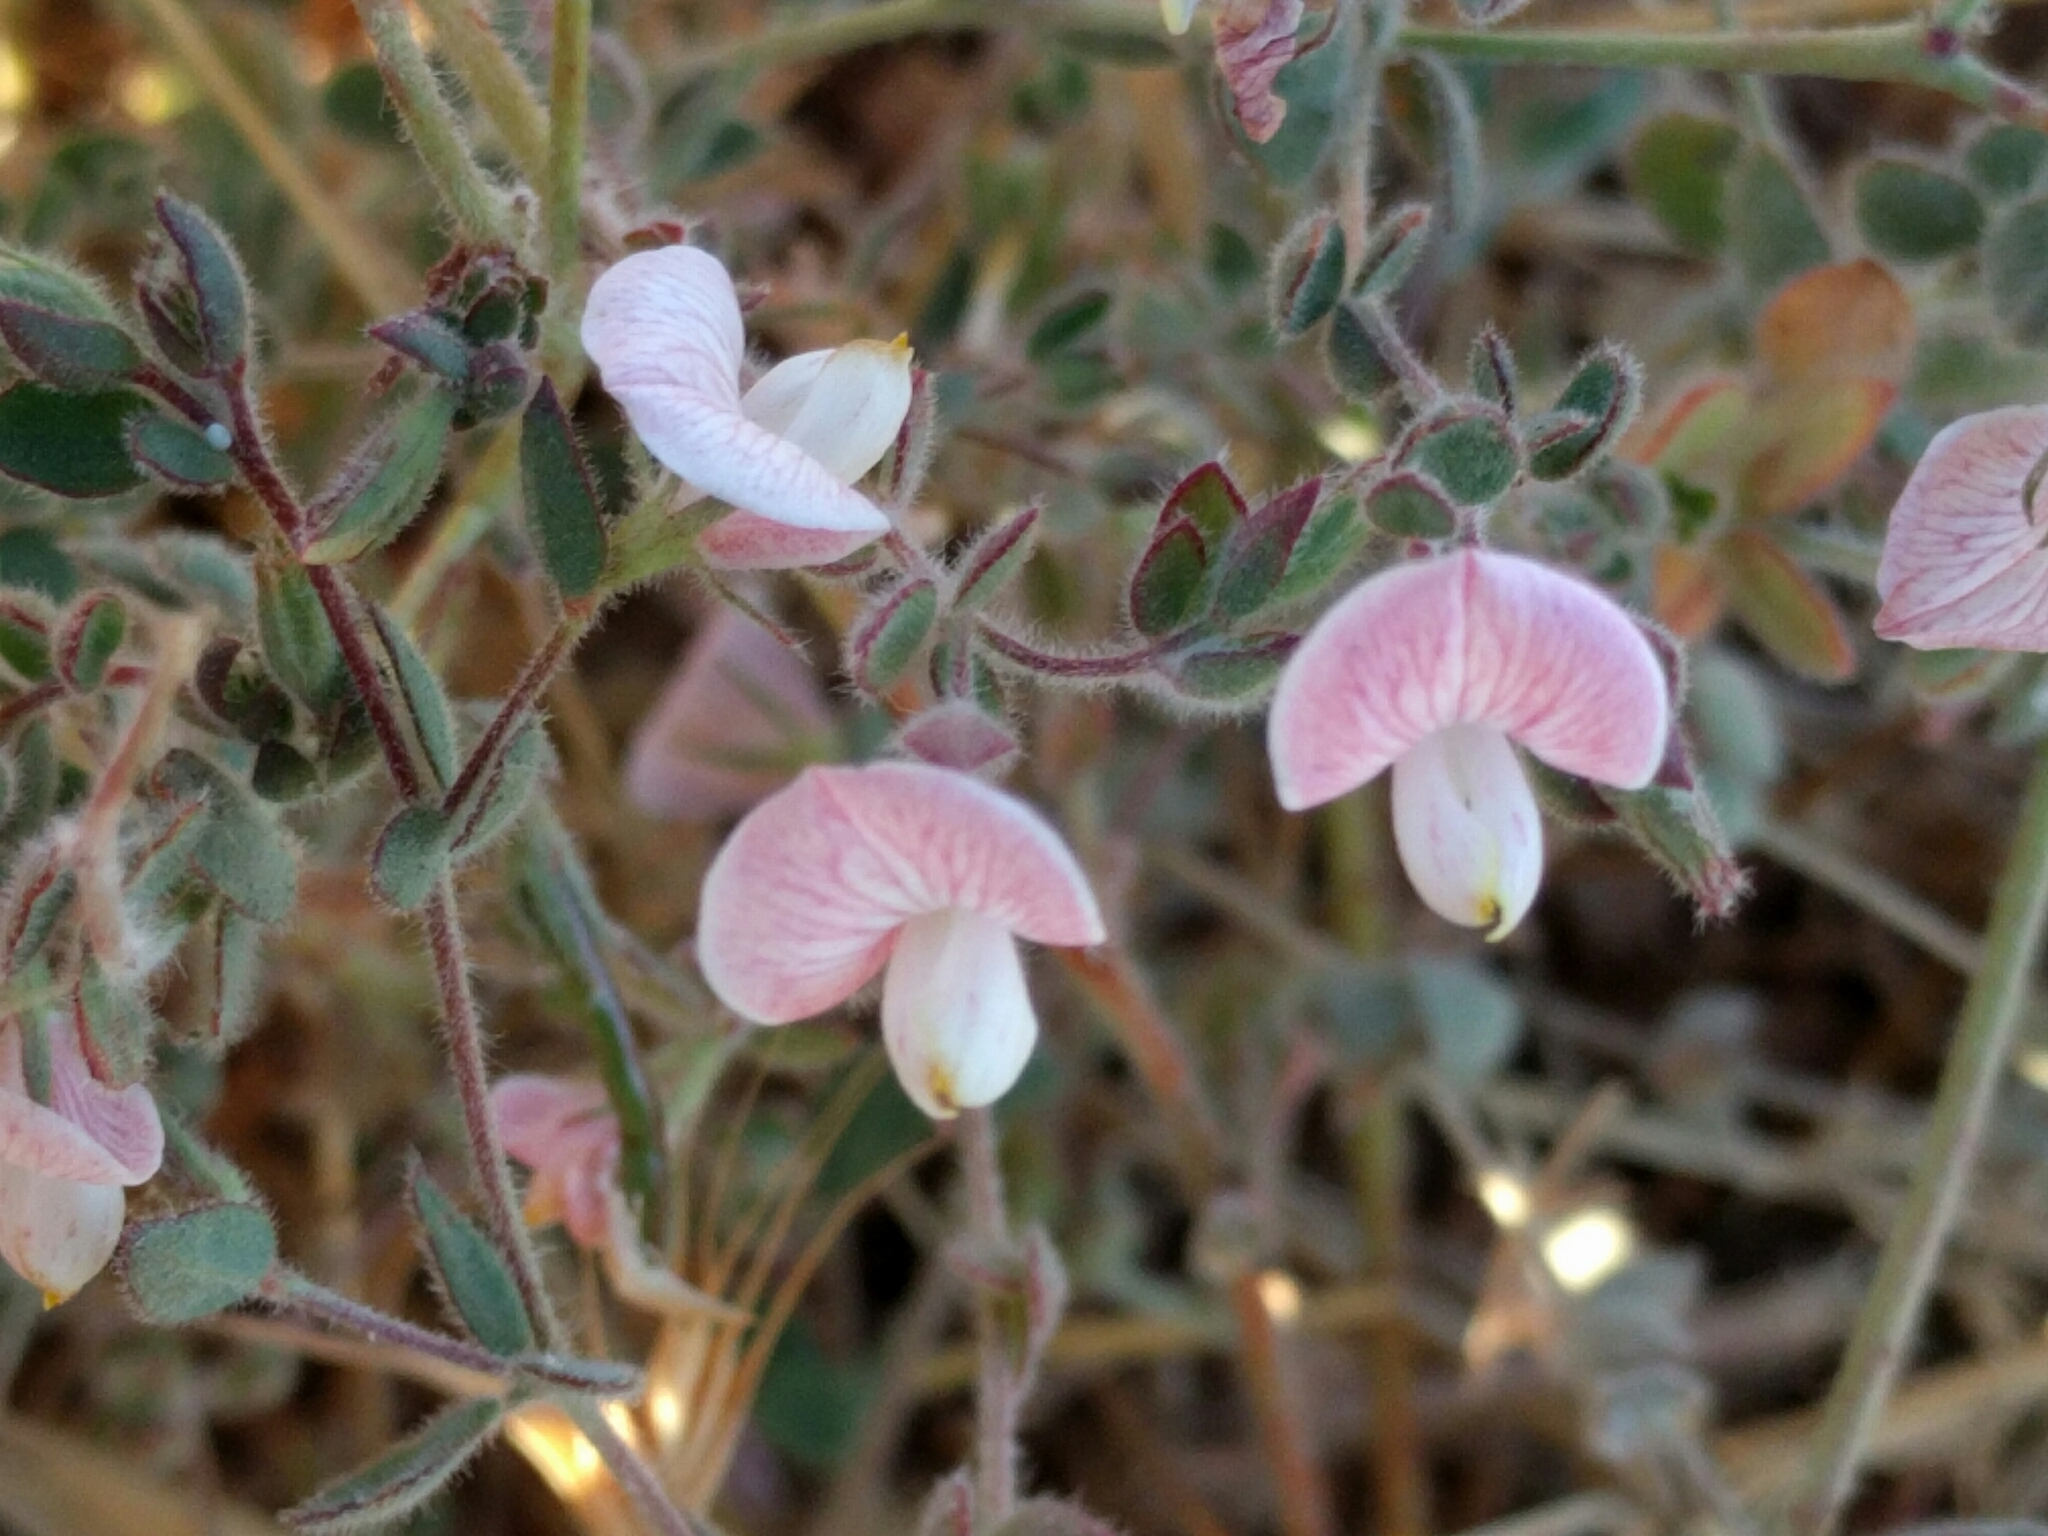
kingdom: Plantae
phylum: Tracheophyta
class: Magnoliopsida
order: Fabales
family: Fabaceae
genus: Acmispon
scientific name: Acmispon americanus
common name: American bird's-foot trefoil
